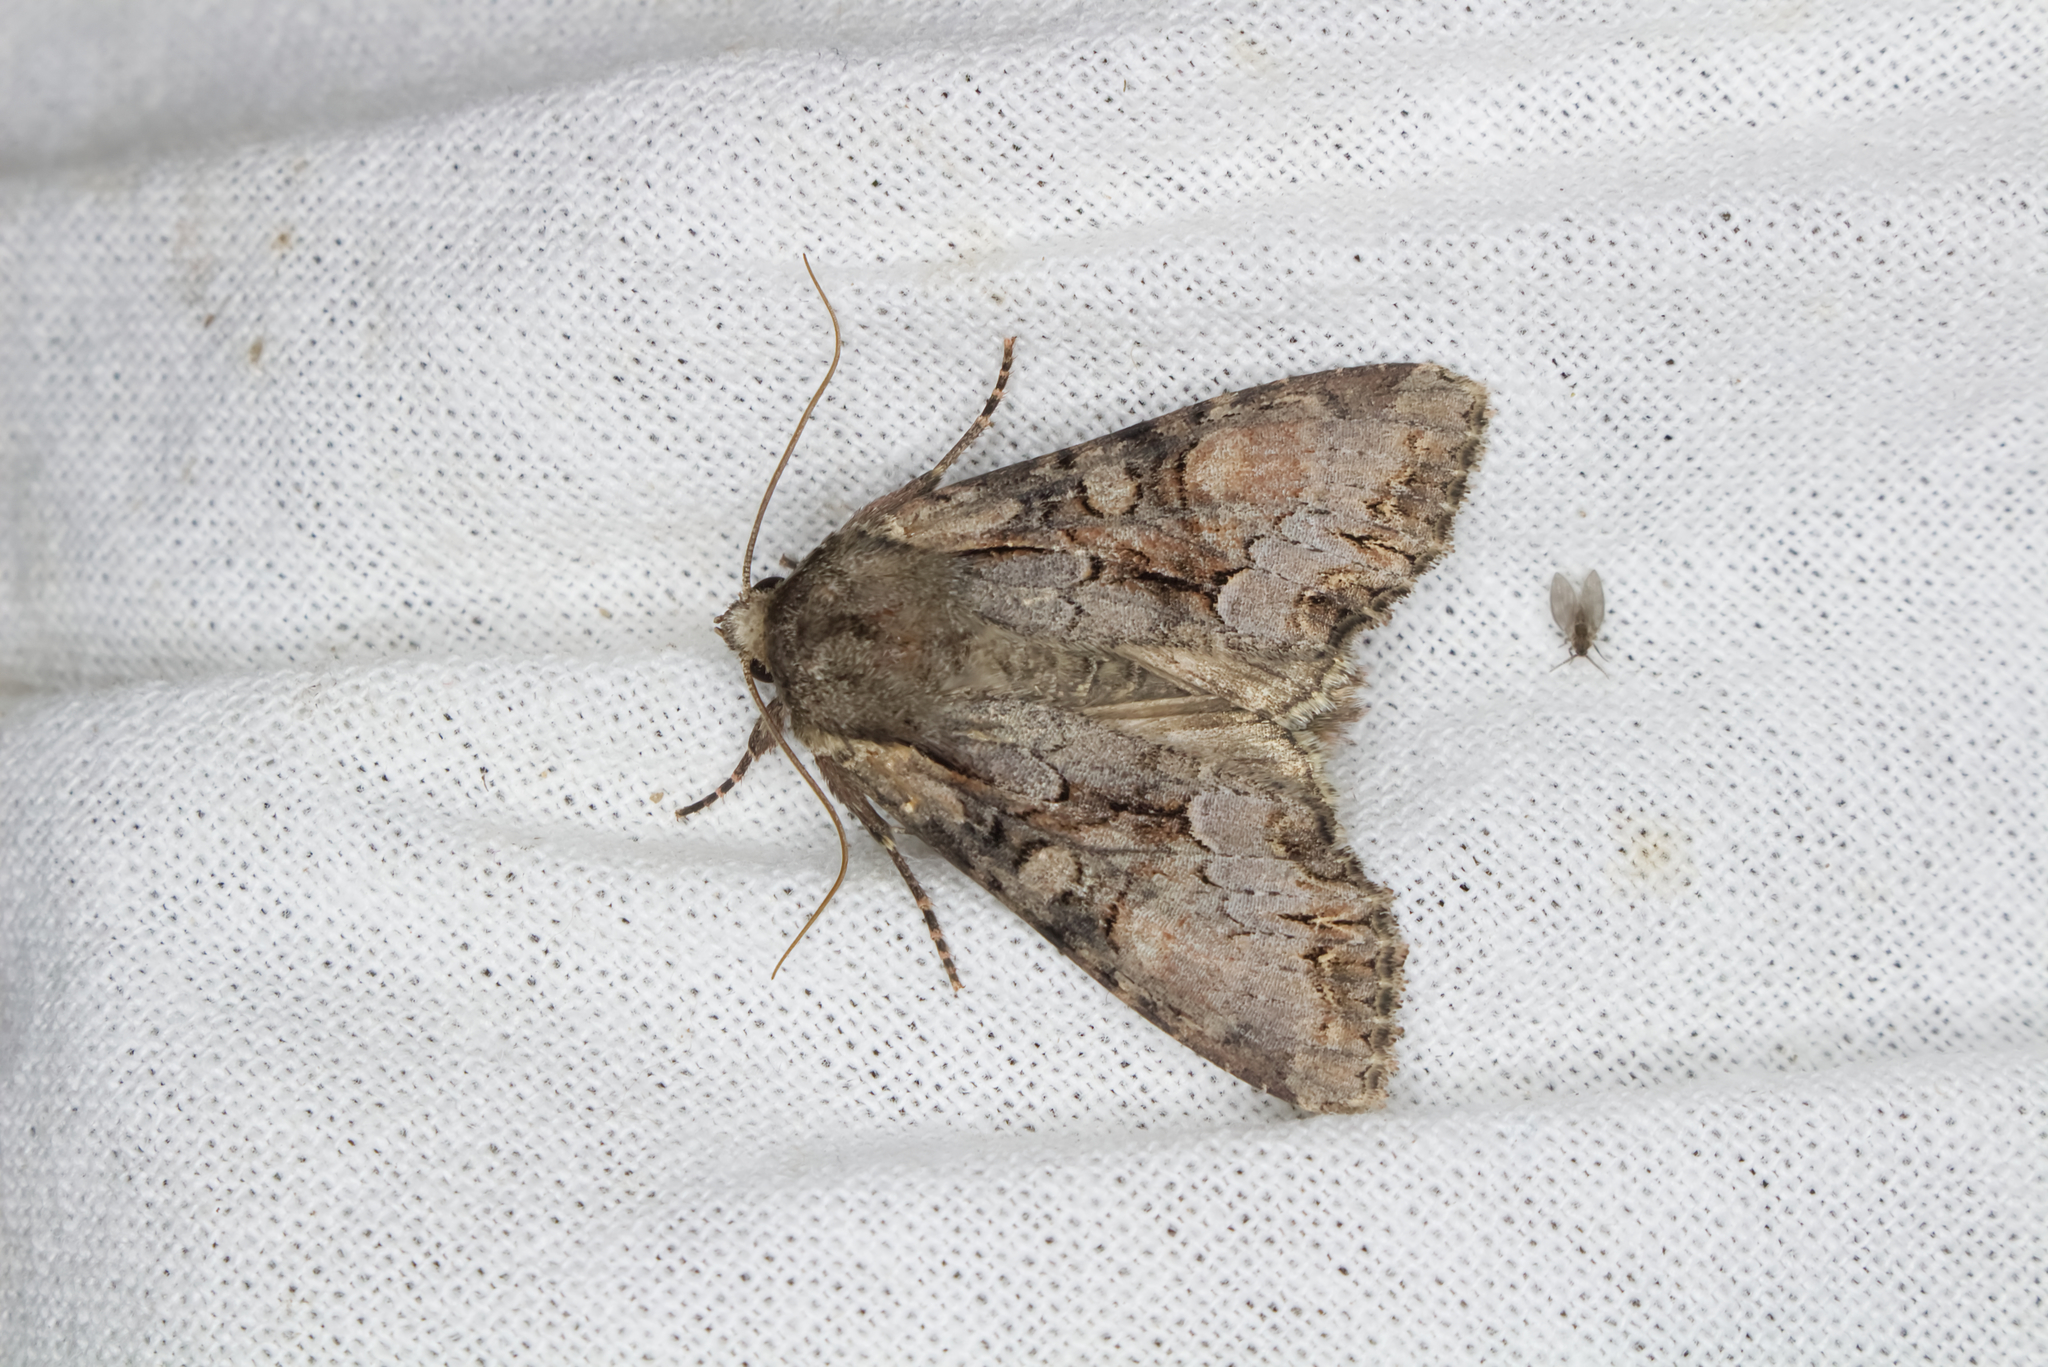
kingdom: Animalia
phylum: Arthropoda
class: Insecta
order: Lepidoptera
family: Noctuidae
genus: Lacanobia
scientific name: Lacanobia w-latinum
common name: Light brocade
